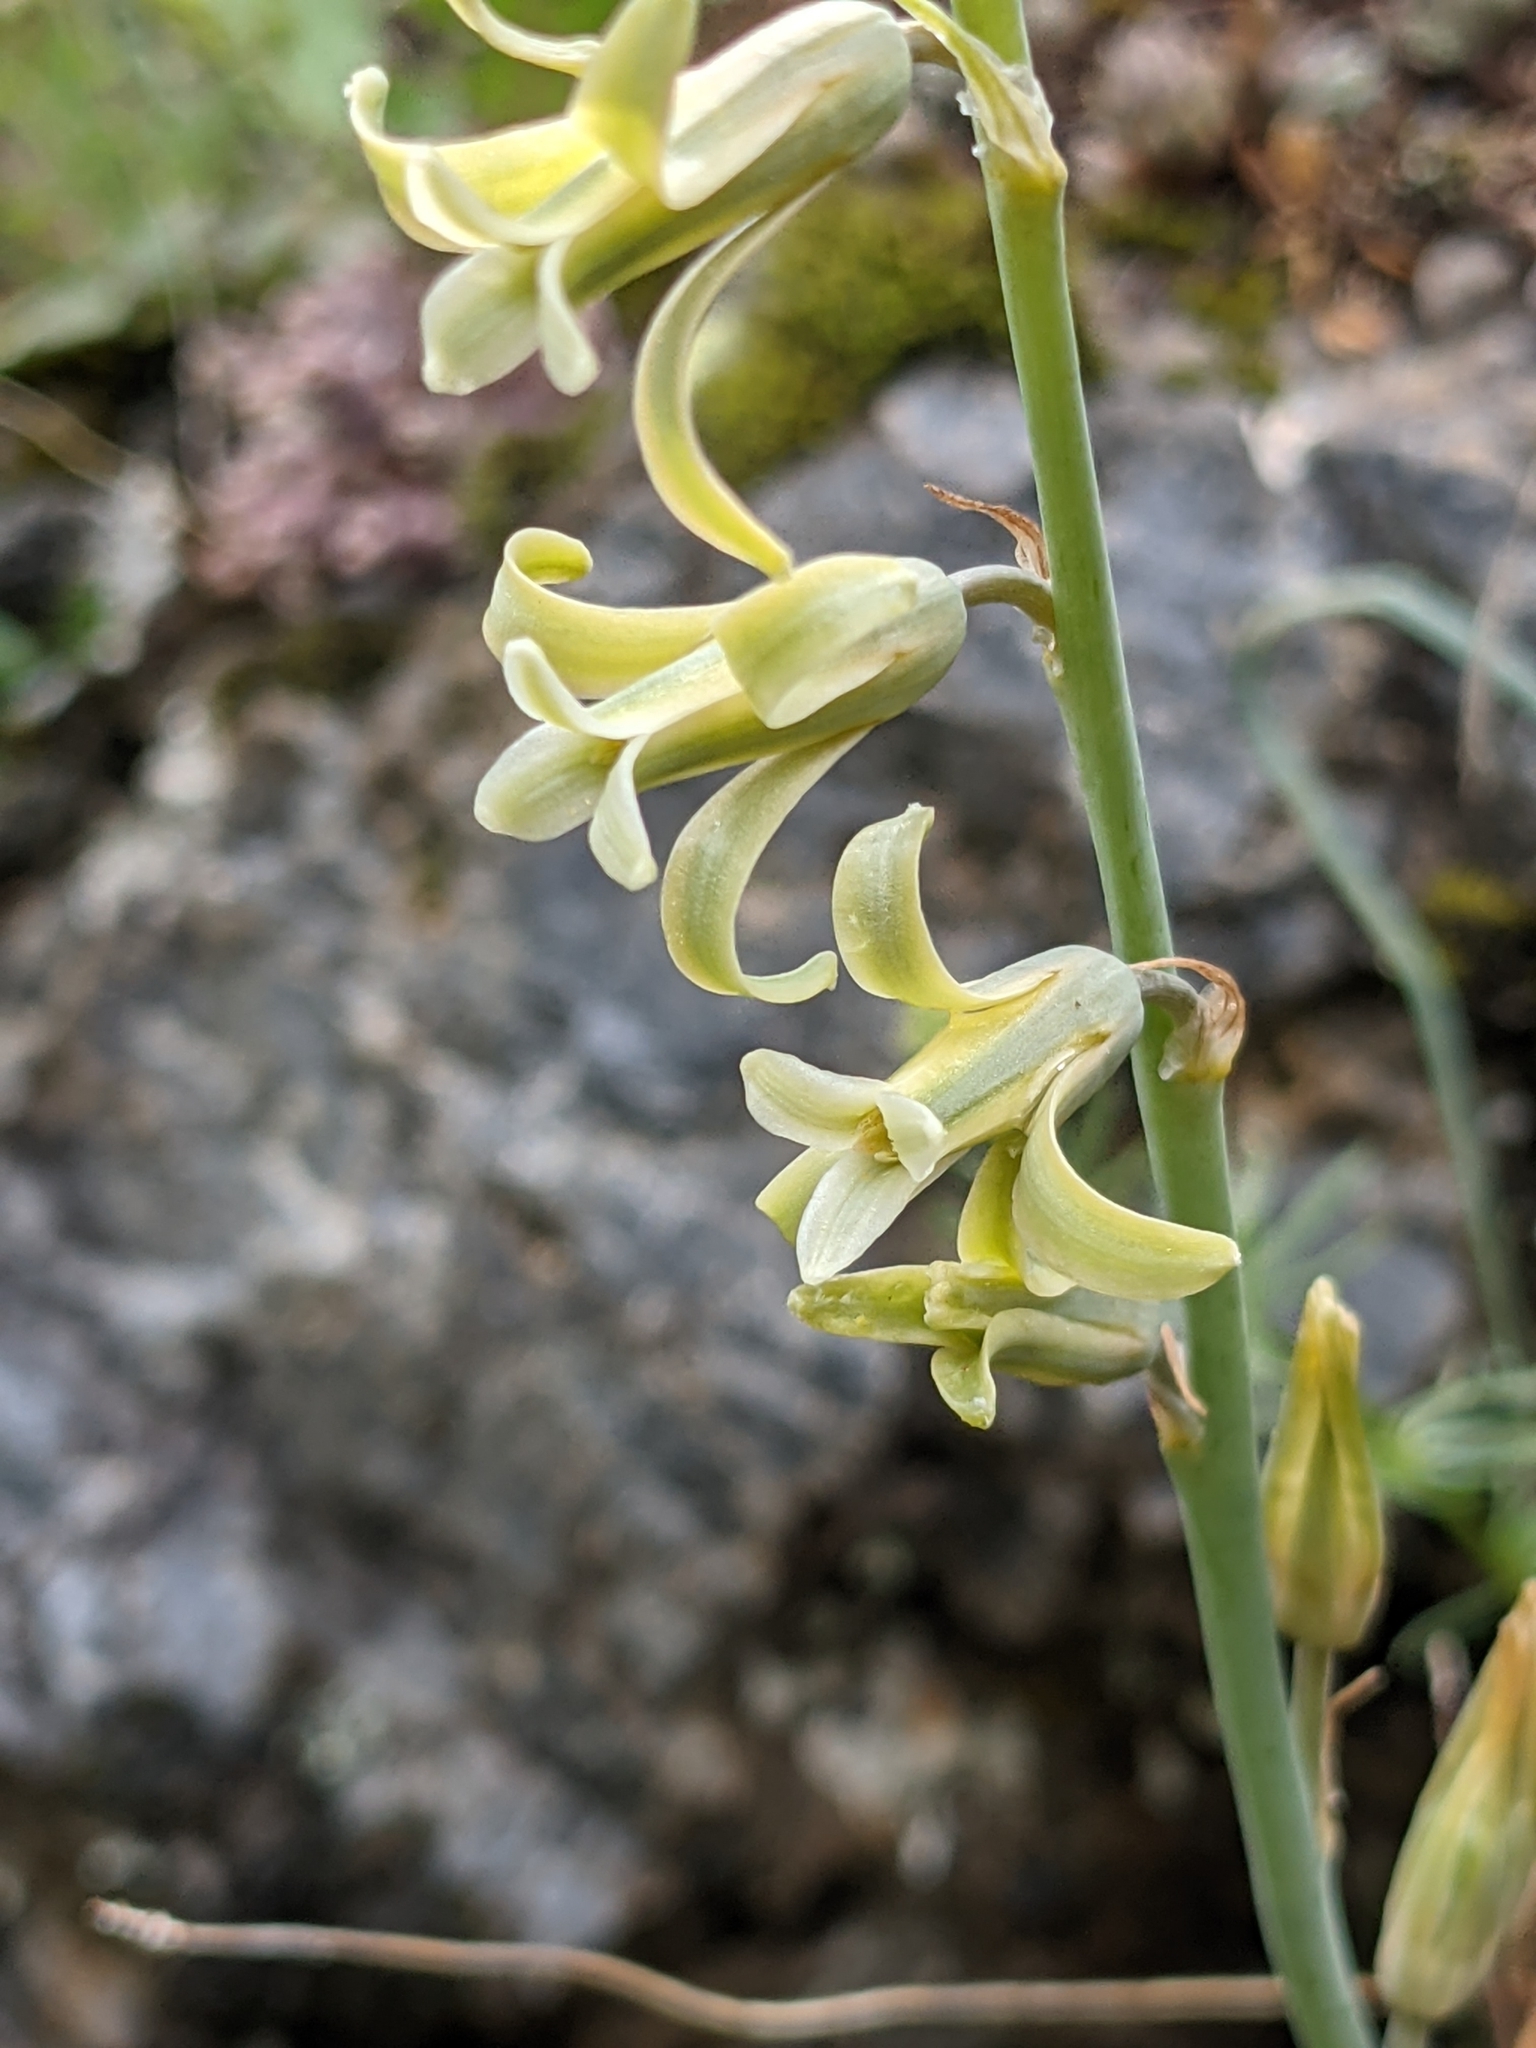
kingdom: Plantae
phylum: Tracheophyta
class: Liliopsida
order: Asparagales
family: Asparagaceae
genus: Dipcadi
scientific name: Dipcadi serotinum
